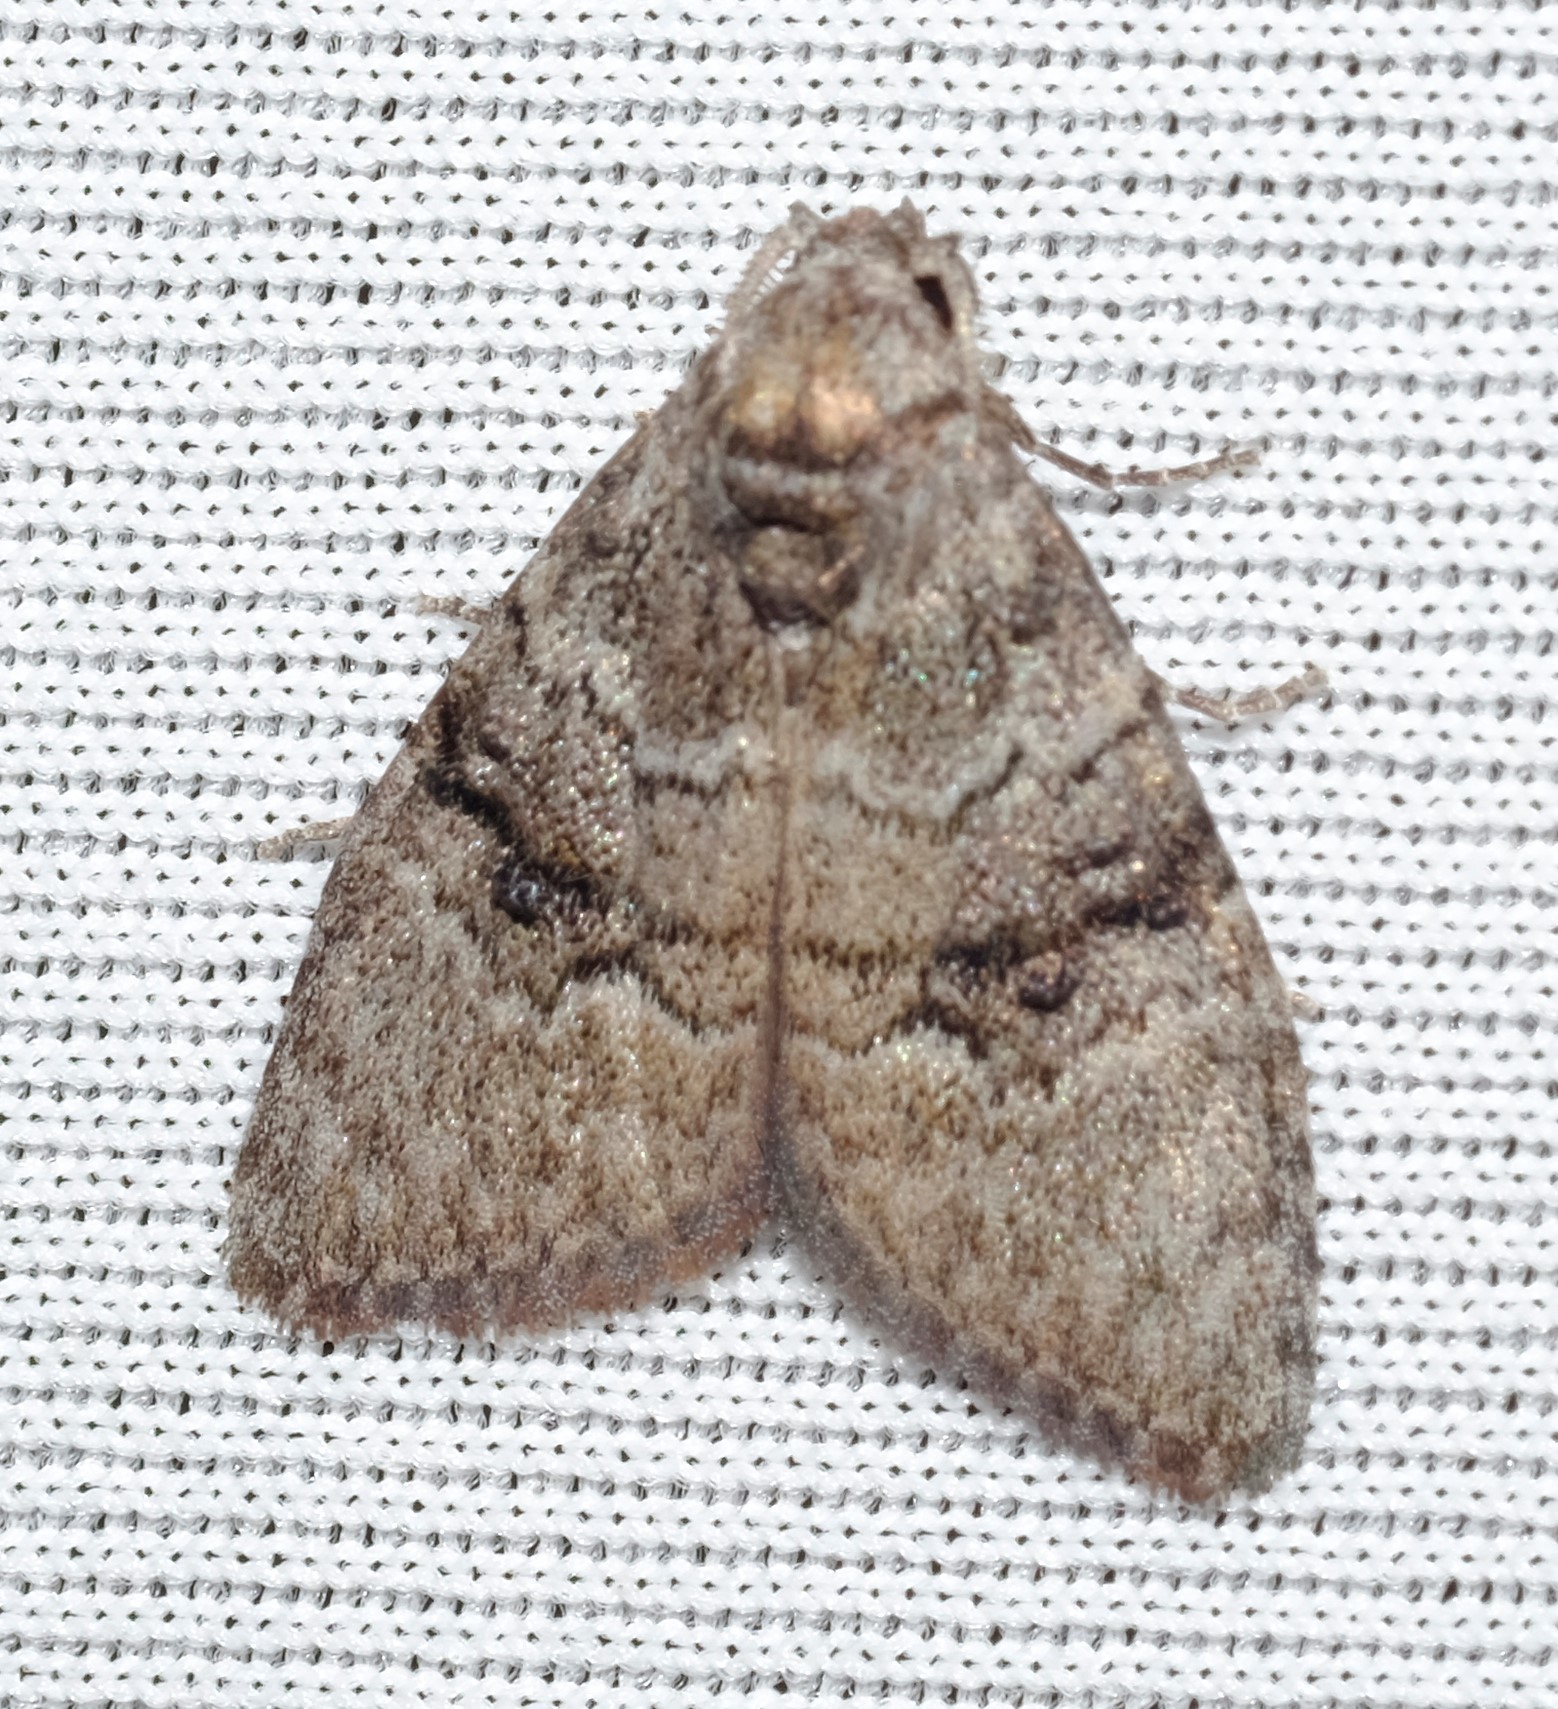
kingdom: Animalia
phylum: Arthropoda
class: Insecta
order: Lepidoptera
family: Nolidae
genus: Uraba
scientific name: Uraba lugens
